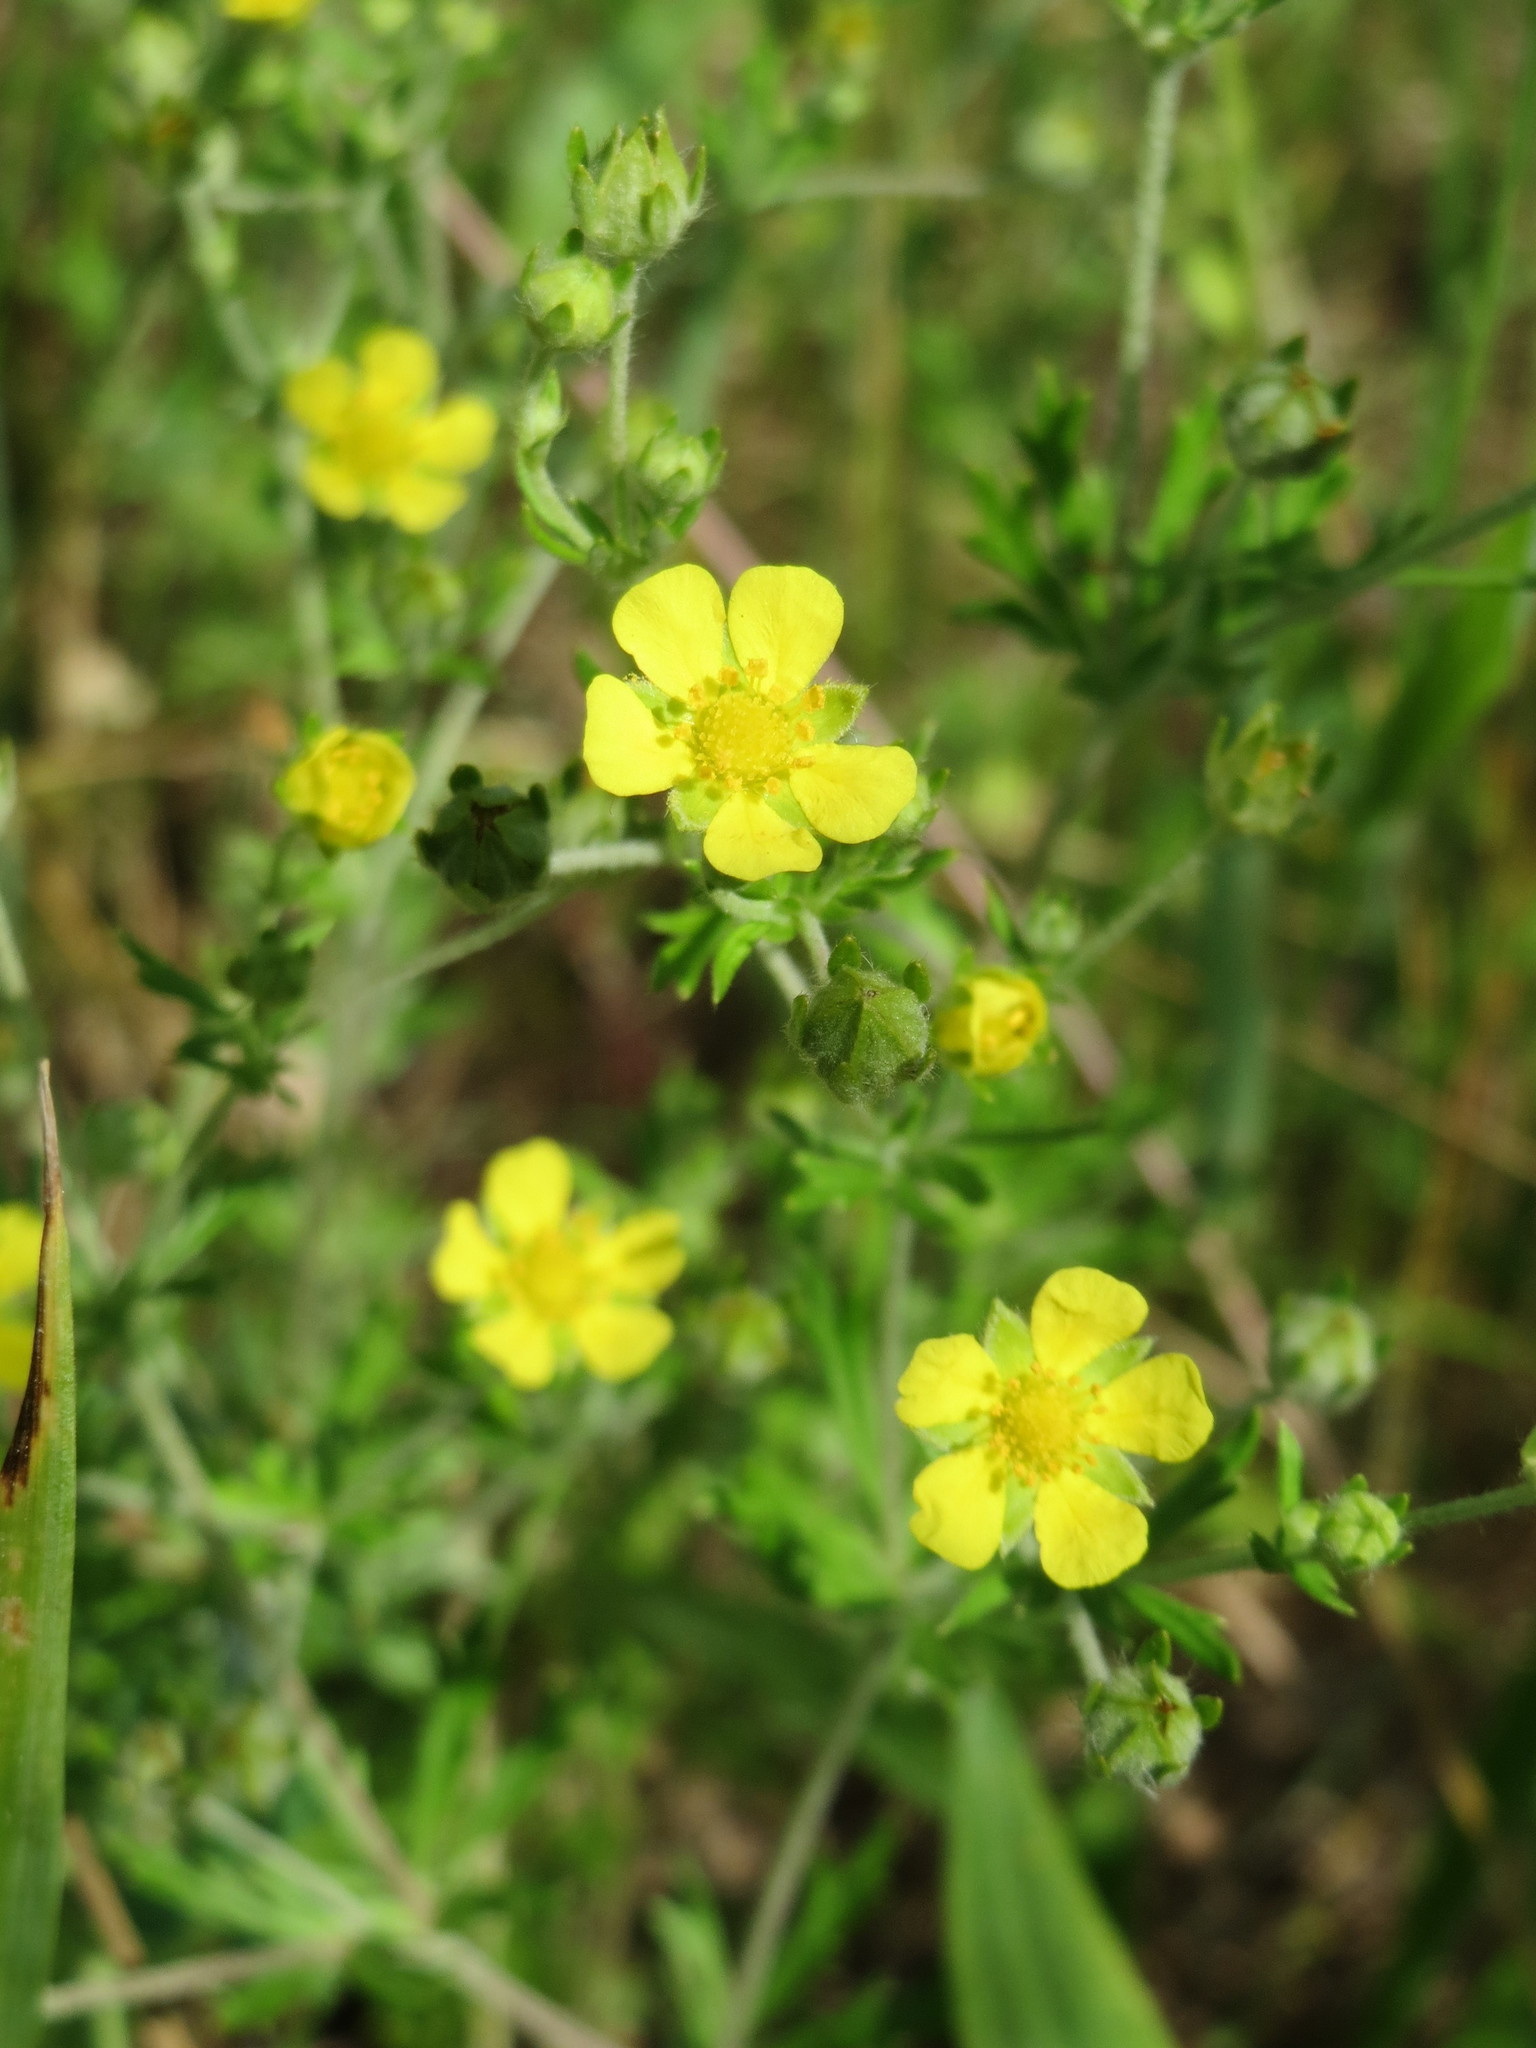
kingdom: Plantae
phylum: Tracheophyta
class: Magnoliopsida
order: Rosales
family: Rosaceae
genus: Potentilla
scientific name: Potentilla argentea
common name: Hoary cinquefoil
